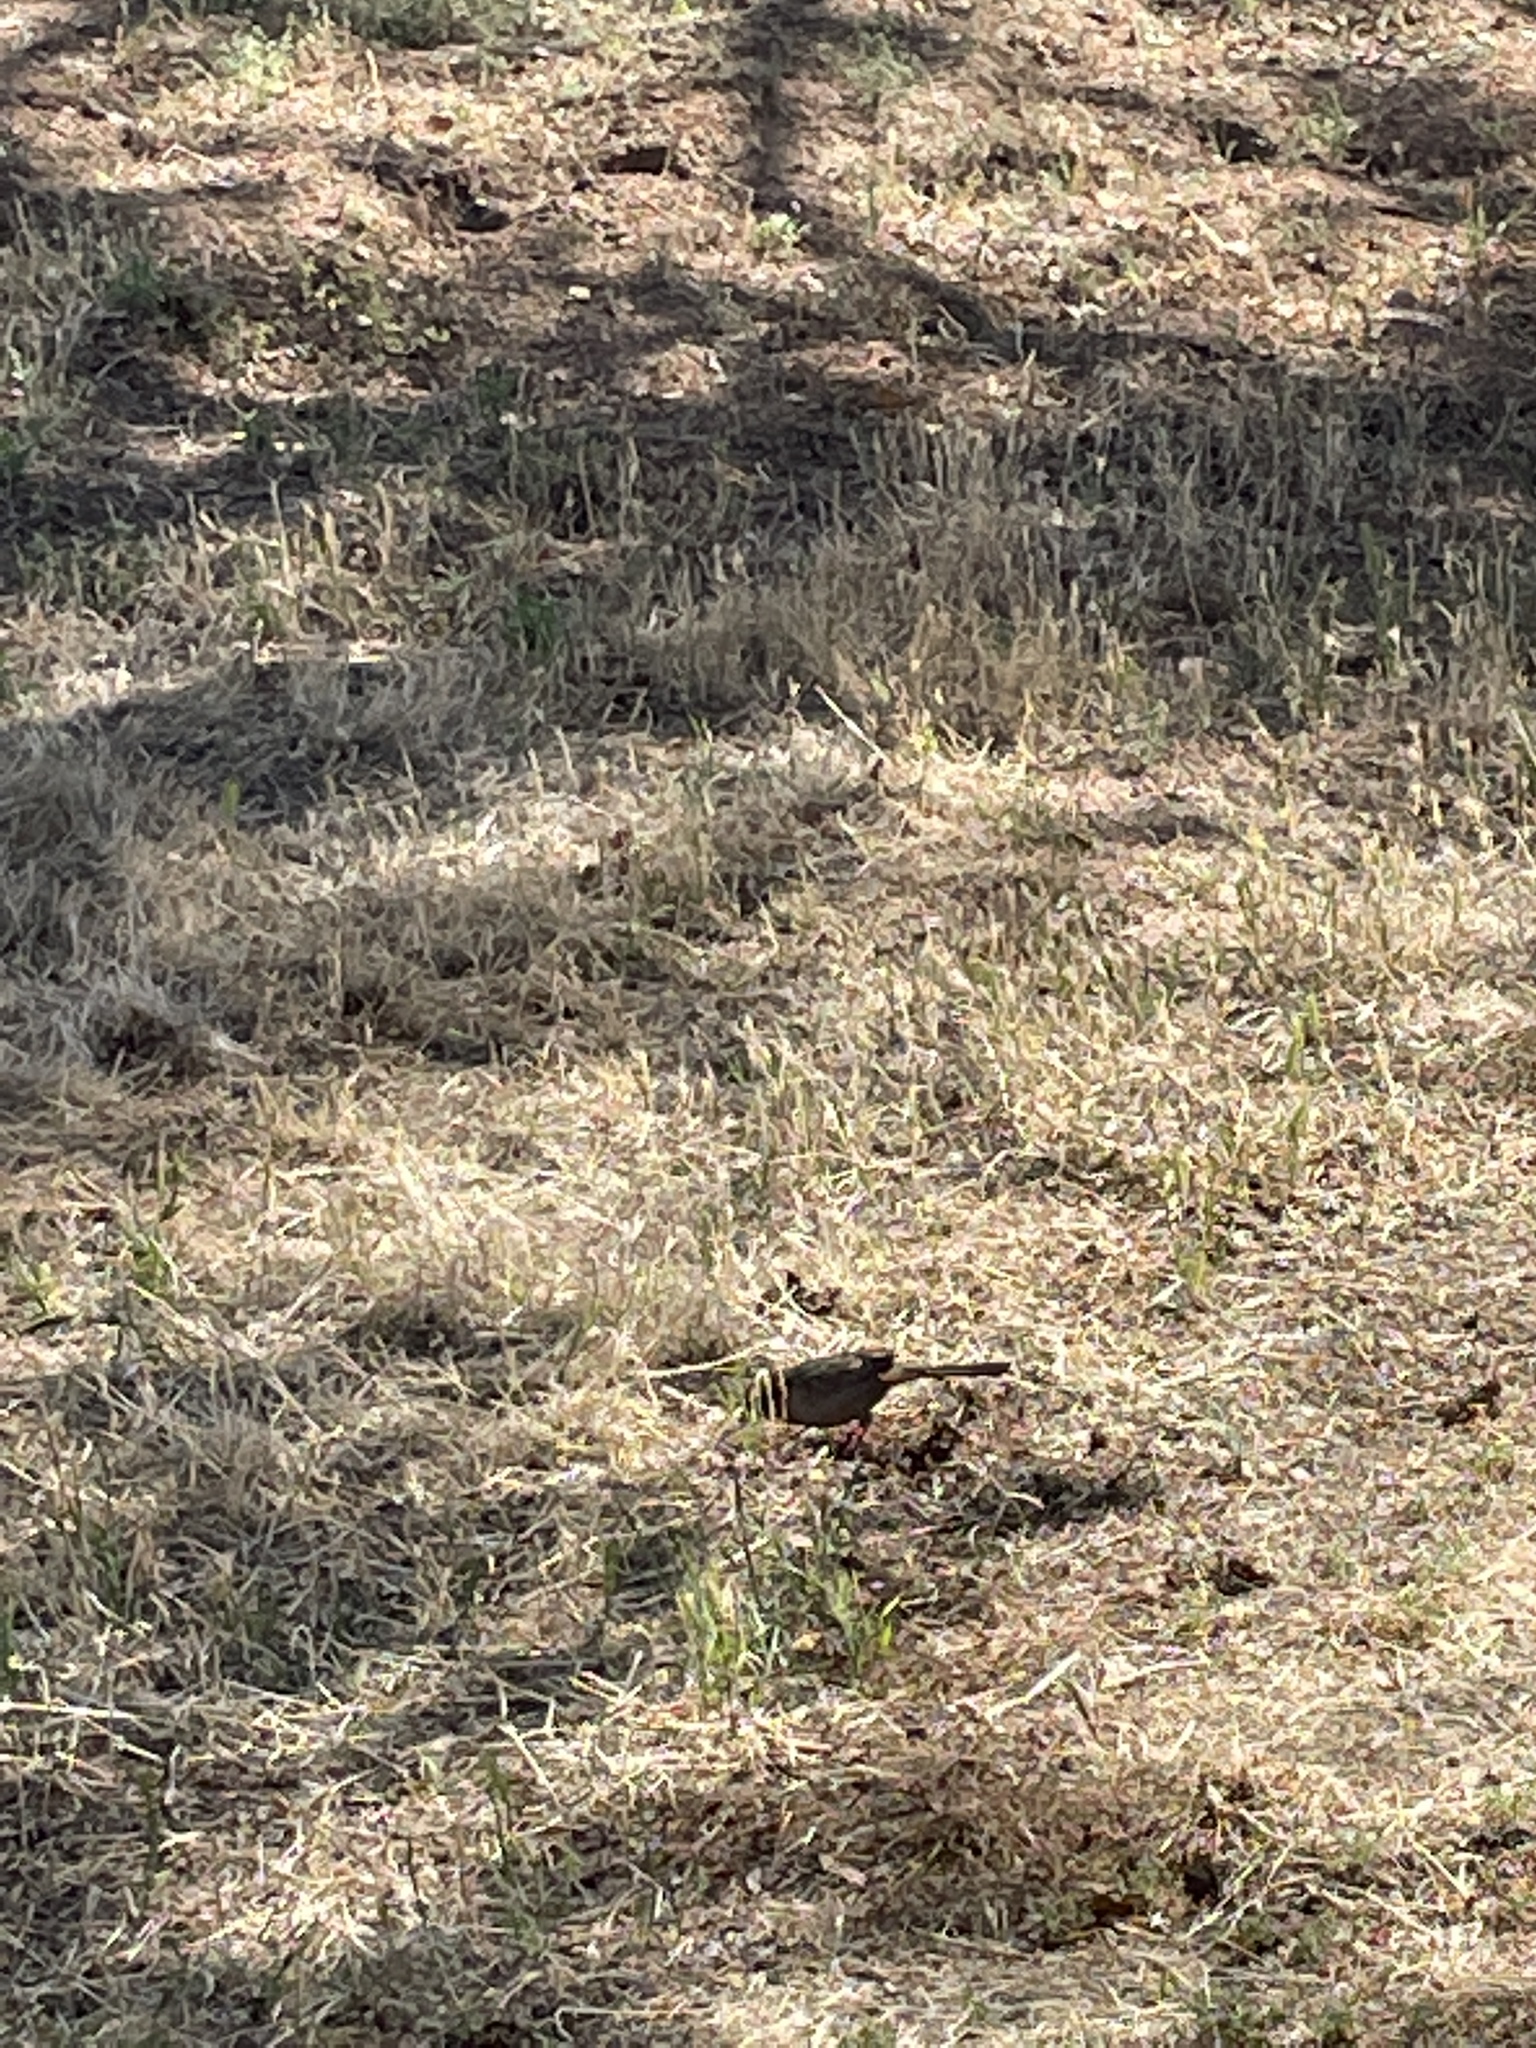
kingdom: Animalia
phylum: Chordata
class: Aves
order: Passeriformes
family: Passerellidae
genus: Melozone
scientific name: Melozone crissalis
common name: California towhee
